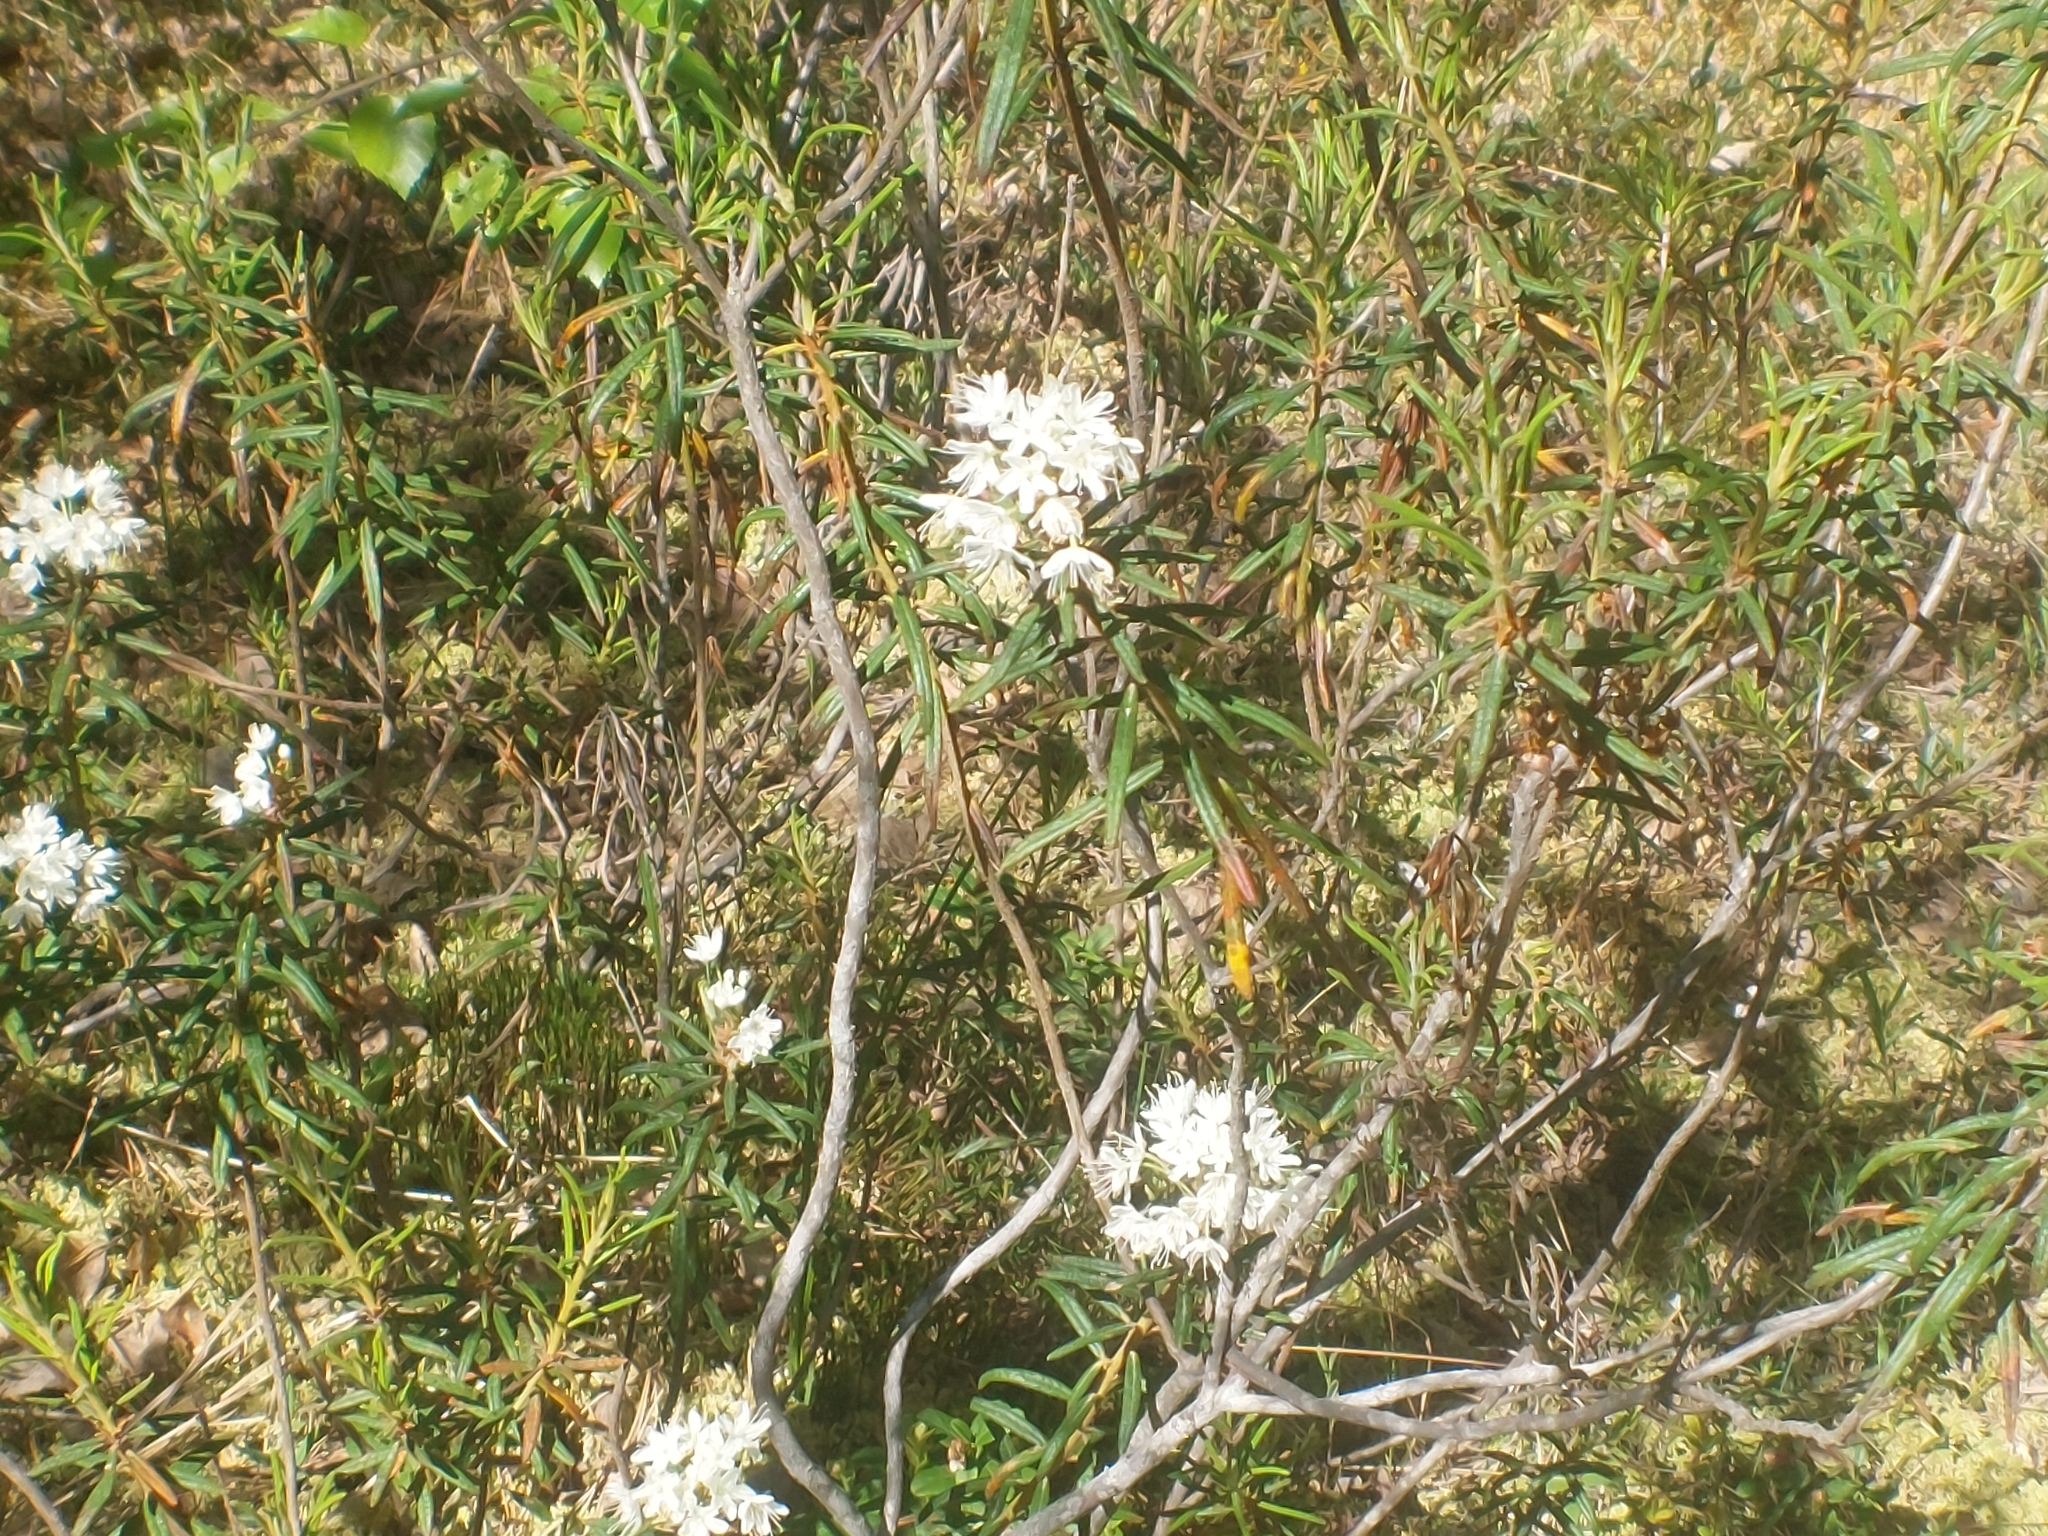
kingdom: Plantae
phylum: Tracheophyta
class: Magnoliopsida
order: Ericales
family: Ericaceae
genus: Rhododendron
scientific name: Rhododendron tomentosum
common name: Marsh labrador tea
